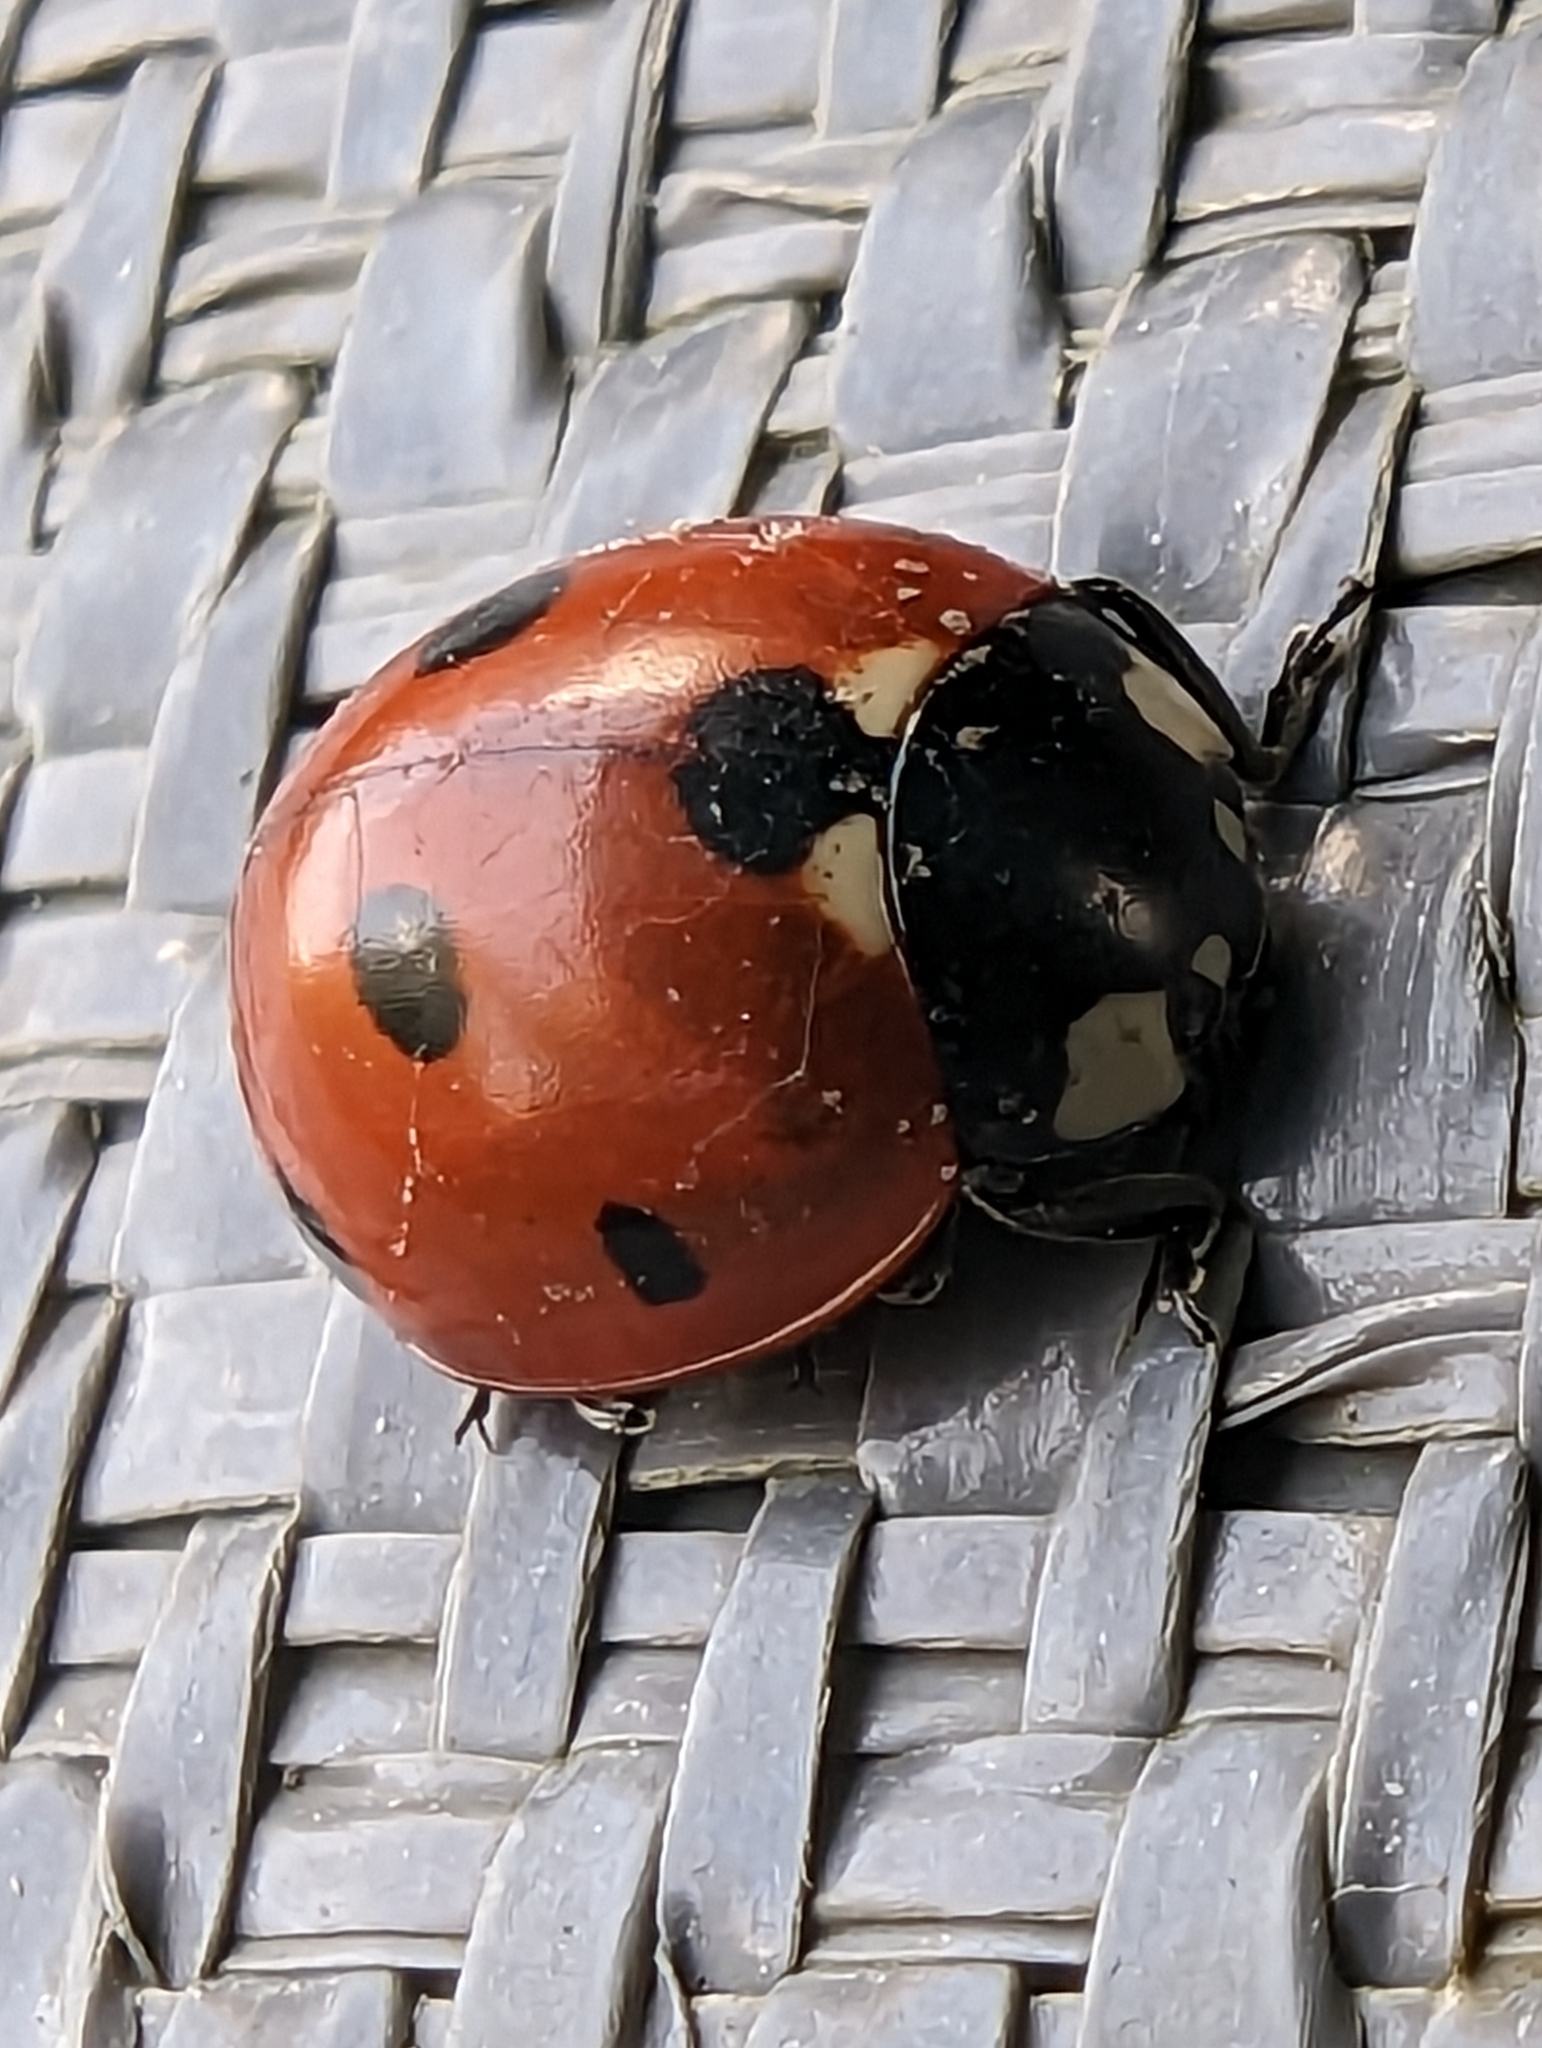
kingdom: Animalia
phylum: Arthropoda
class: Insecta
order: Coleoptera
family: Coccinellidae
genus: Coccinella
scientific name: Coccinella septempunctata
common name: Sevenspotted lady beetle
